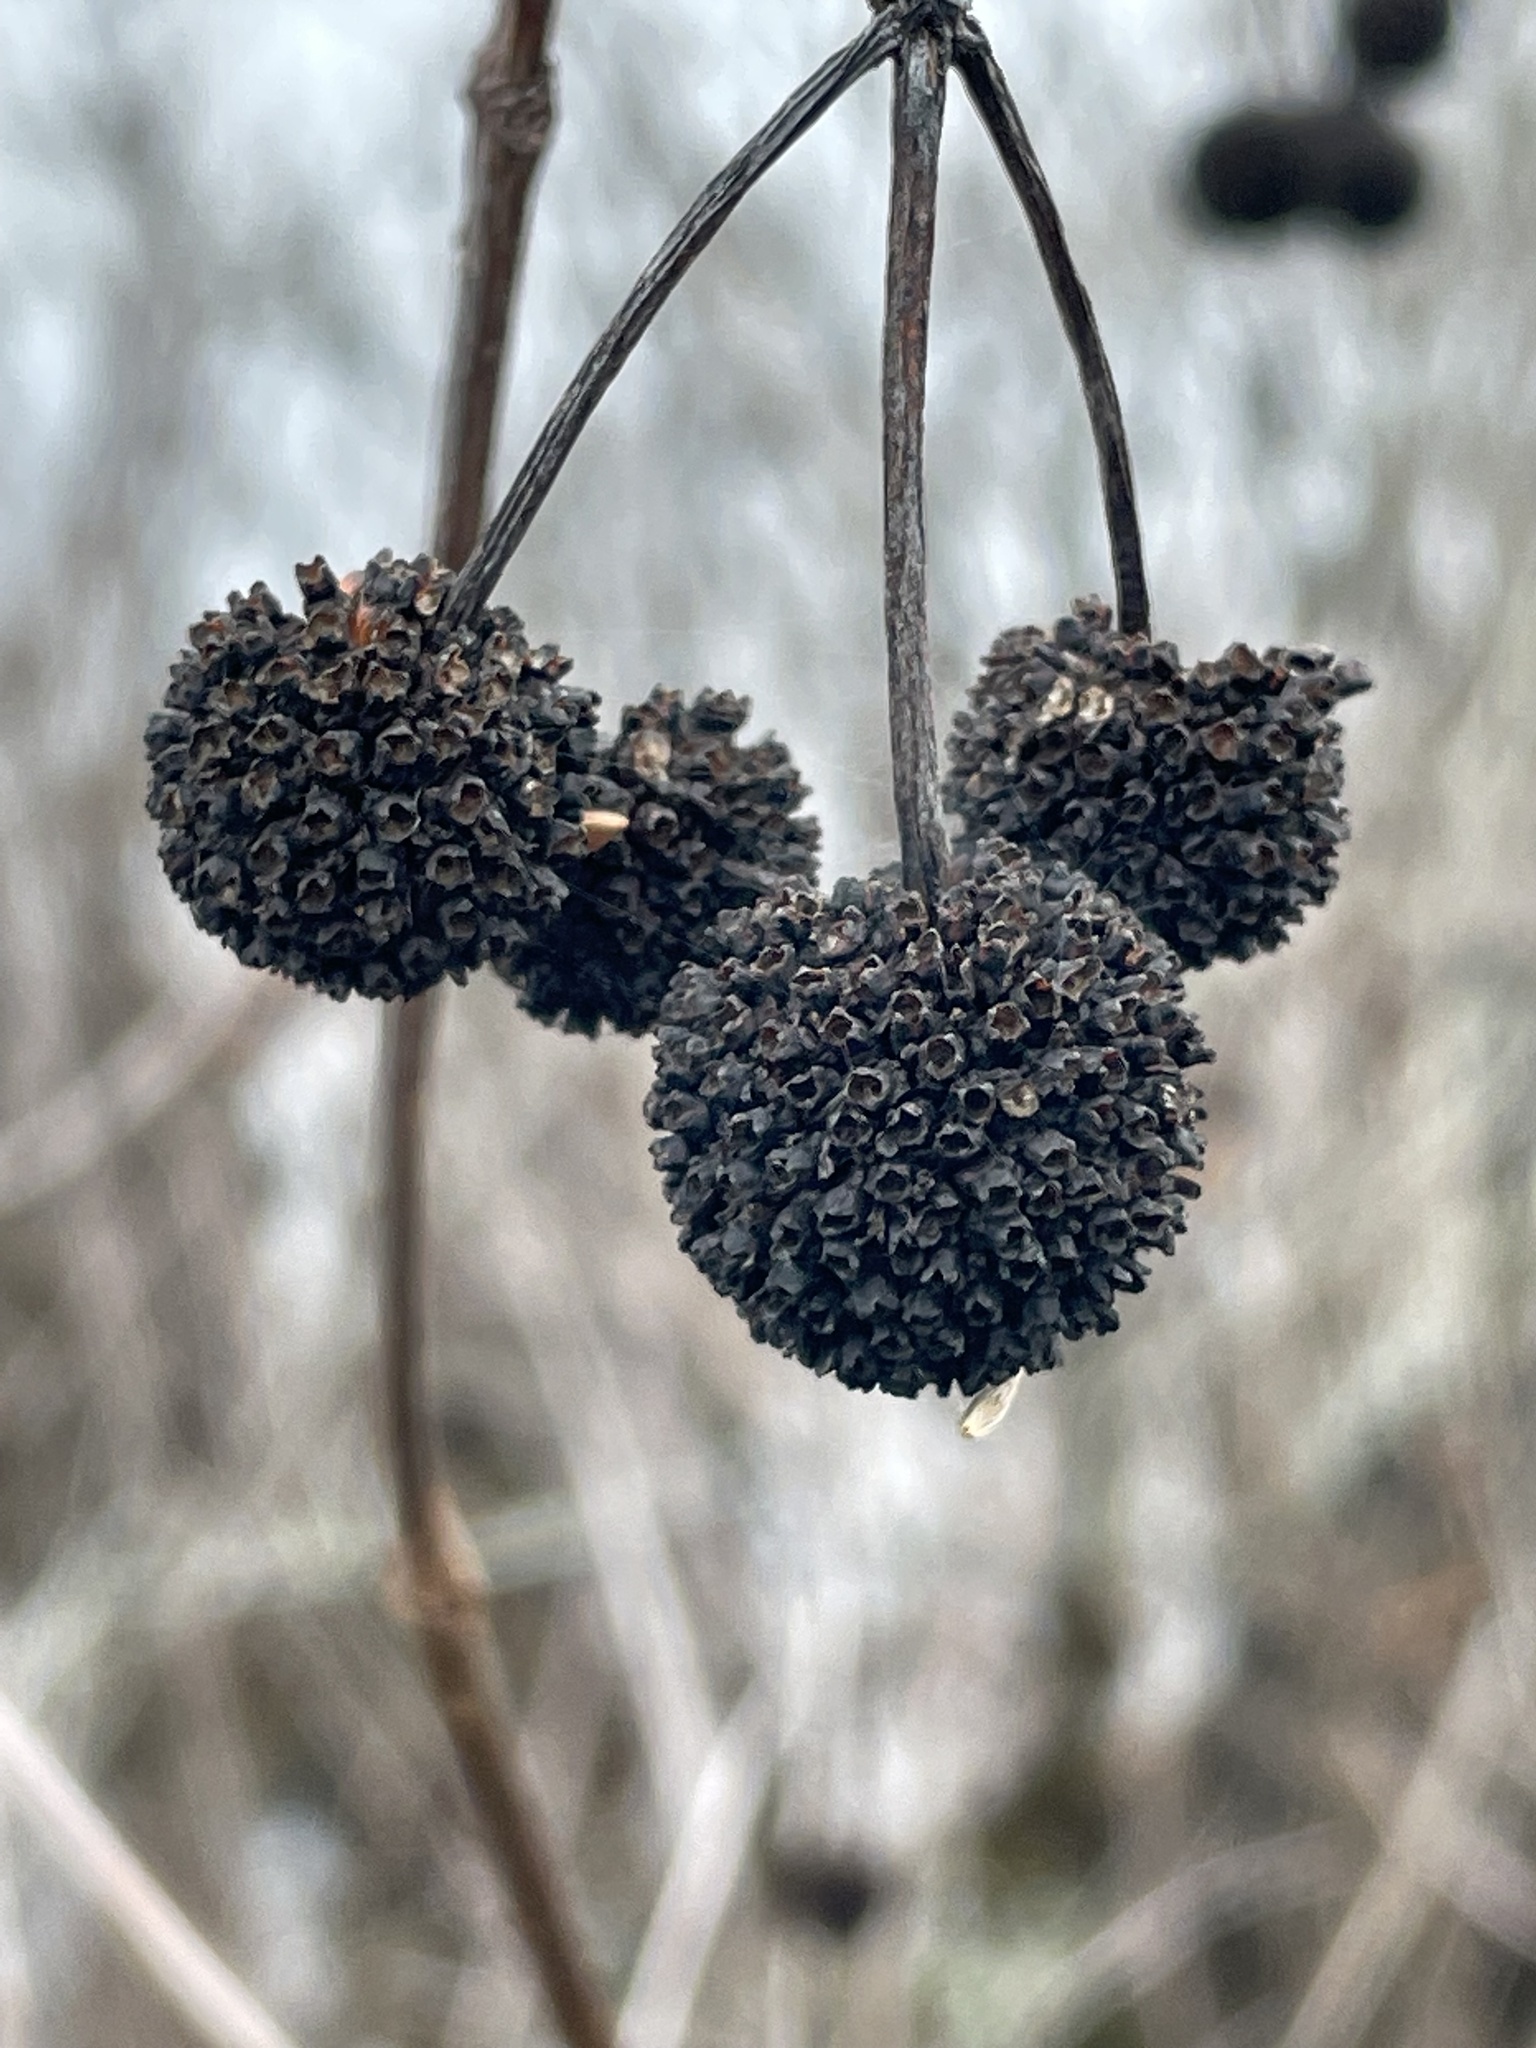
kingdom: Plantae
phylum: Tracheophyta
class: Magnoliopsida
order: Gentianales
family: Rubiaceae
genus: Cephalanthus
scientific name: Cephalanthus occidentalis
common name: Button-willow
